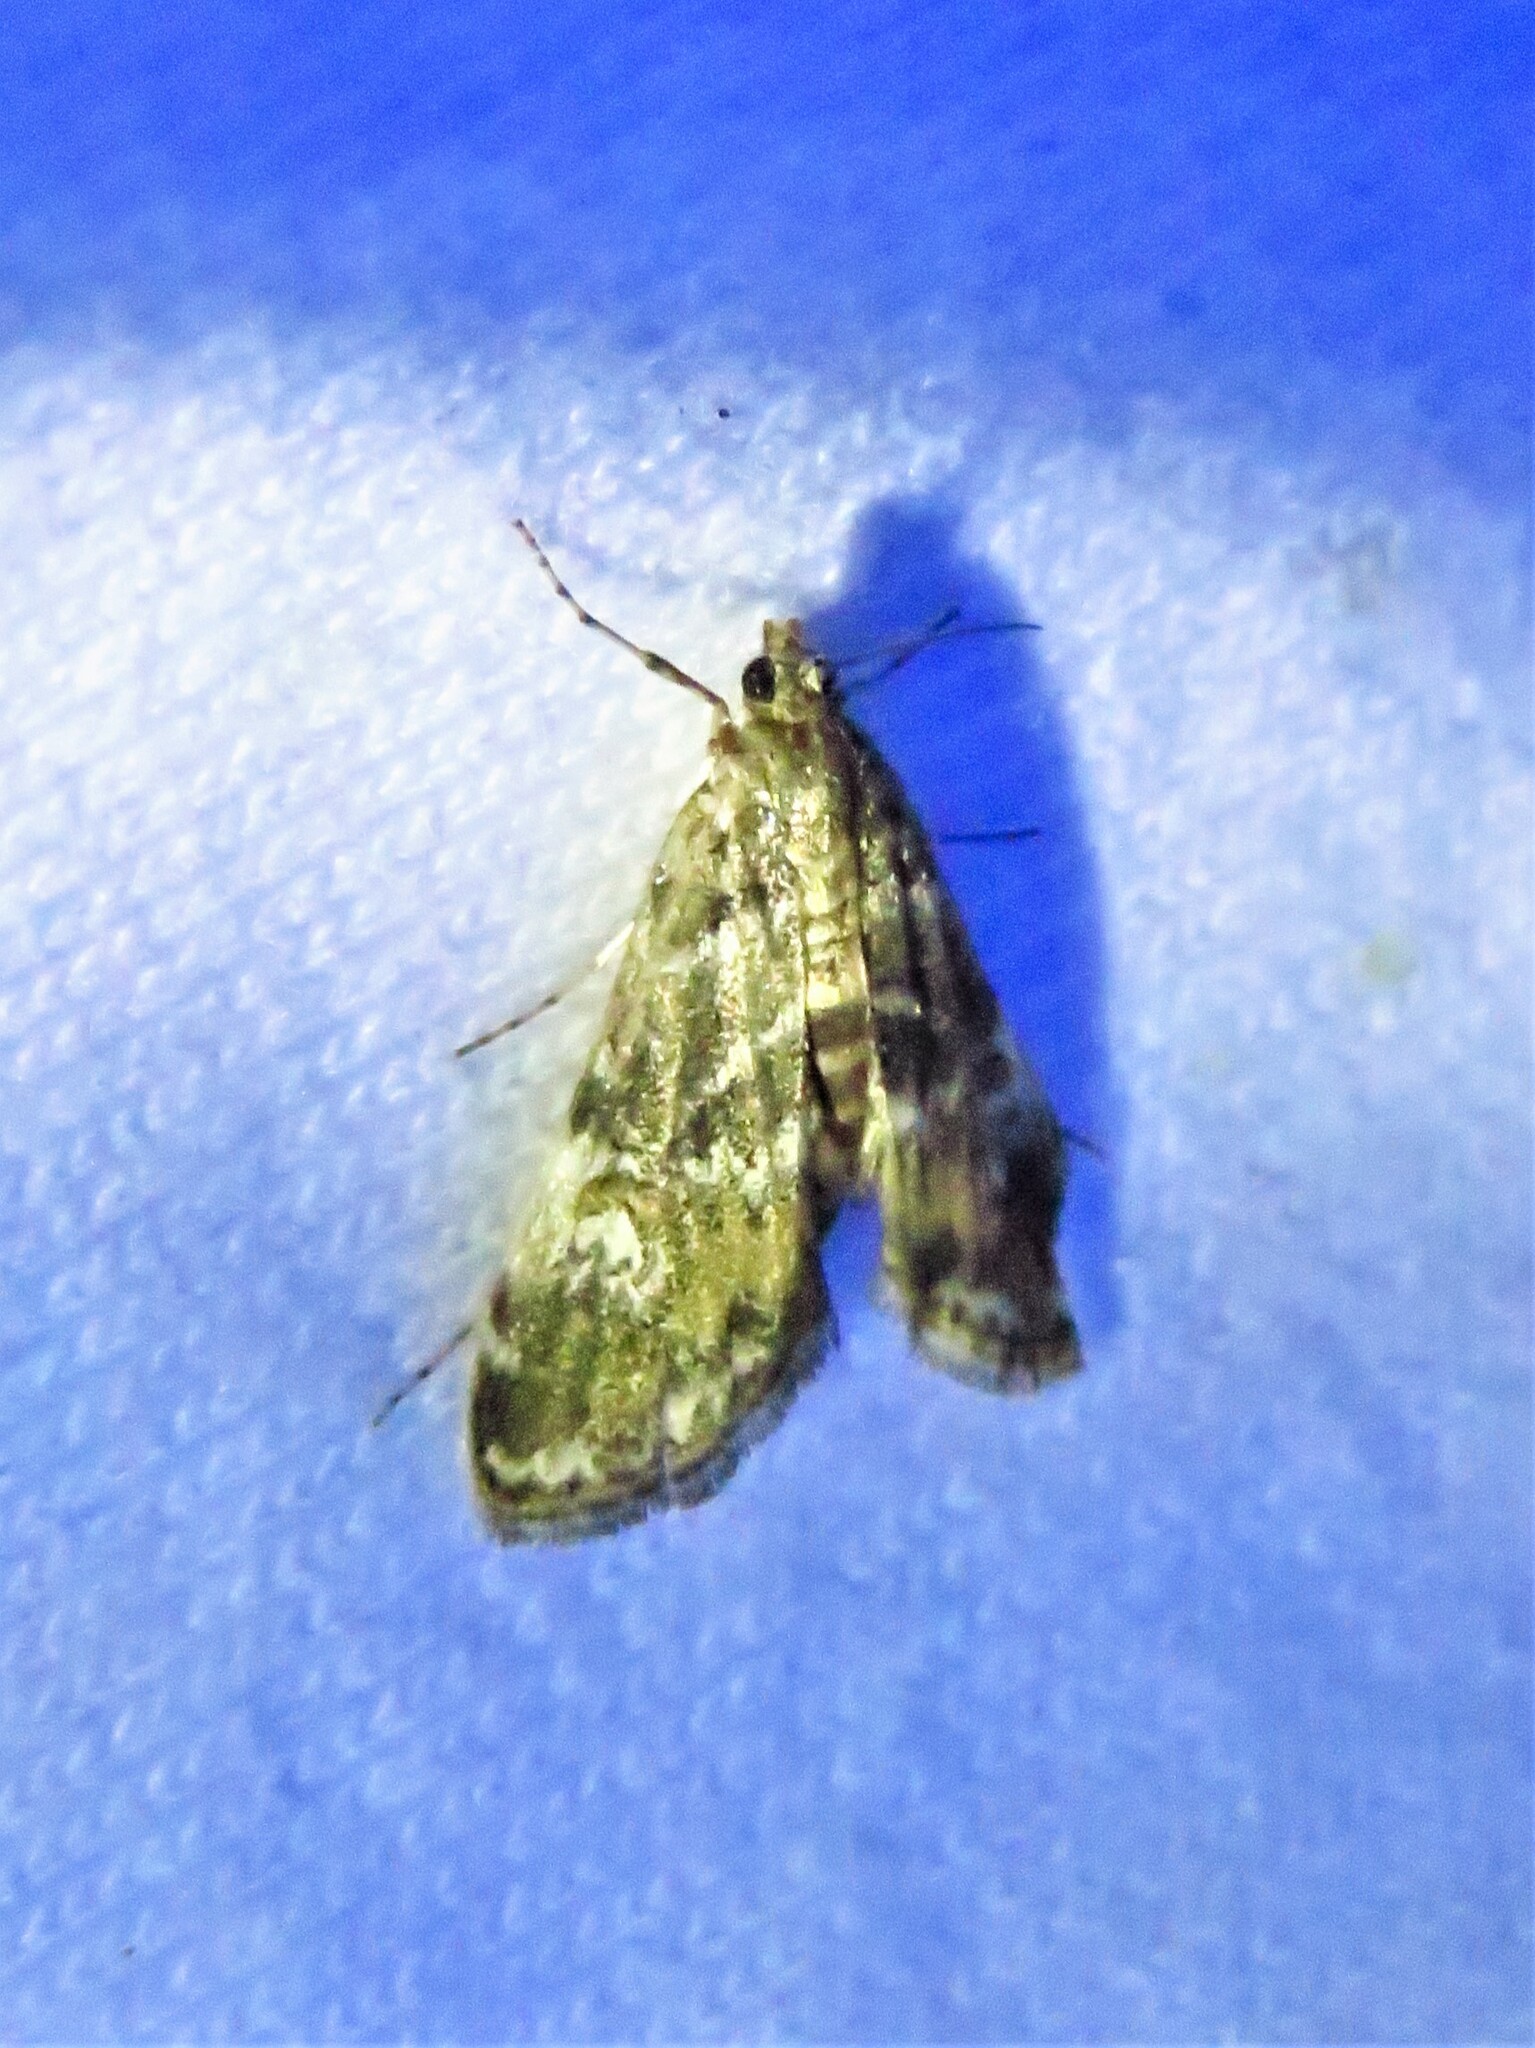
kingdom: Animalia
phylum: Arthropoda
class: Insecta
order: Lepidoptera
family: Crambidae
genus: Elophila
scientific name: Elophila obliteralis
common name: Waterlily leafcutter moth
